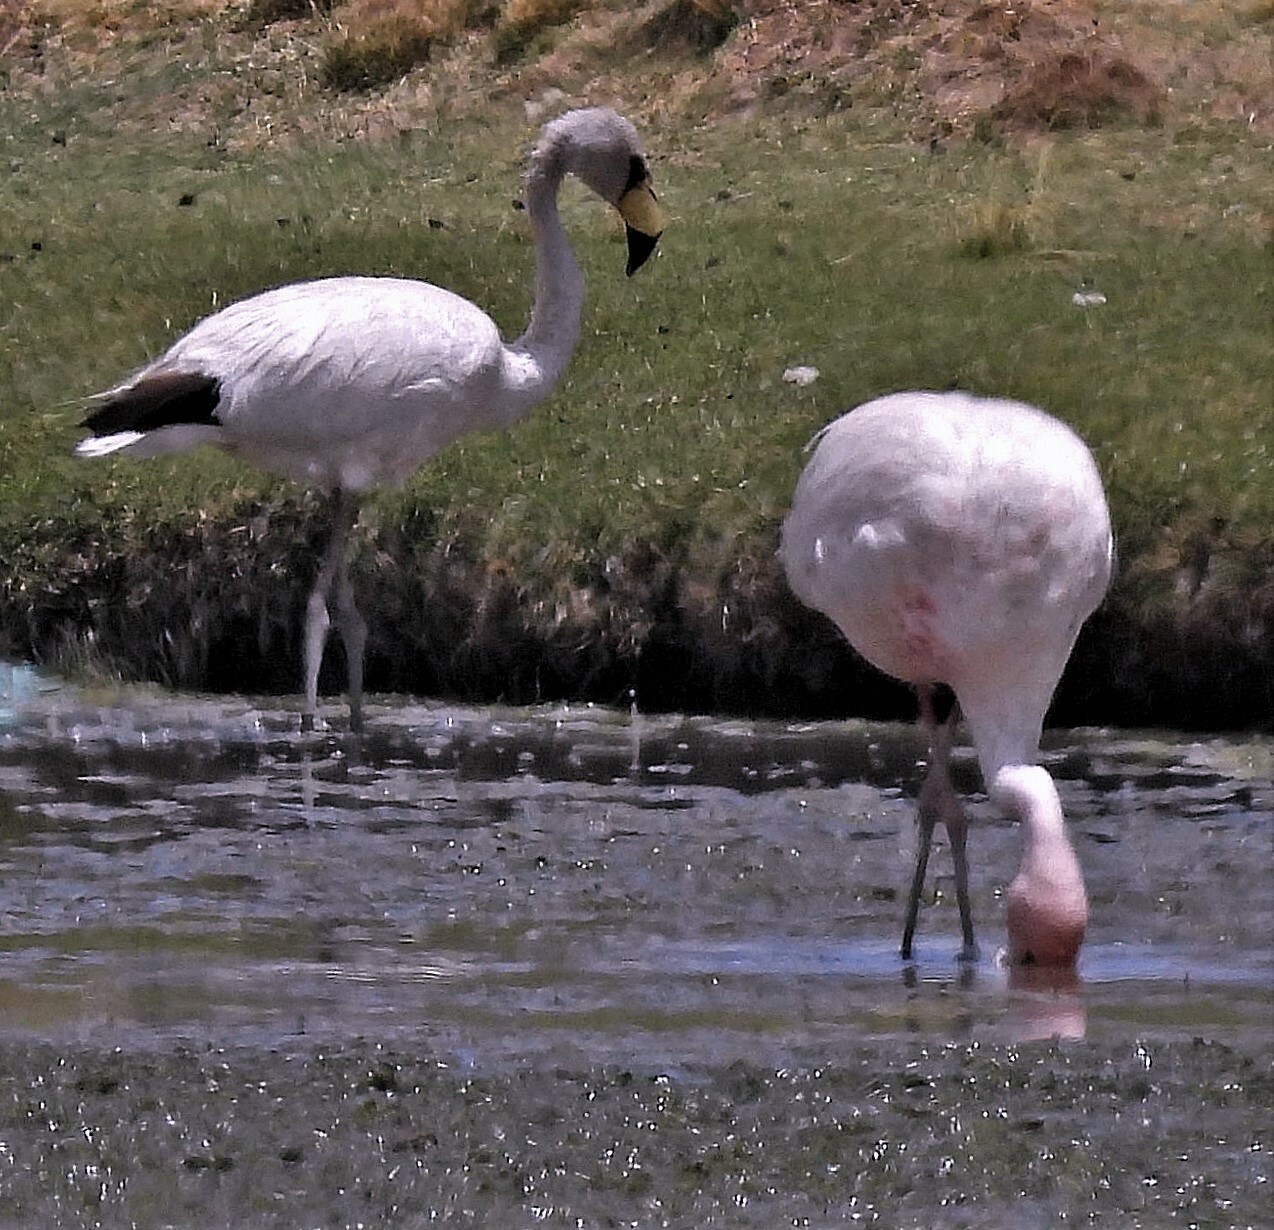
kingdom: Animalia
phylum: Chordata
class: Aves
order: Phoenicopteriformes
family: Phoenicopteridae
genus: Phoenicoparrus
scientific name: Phoenicoparrus jamesi
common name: James's flamingo
